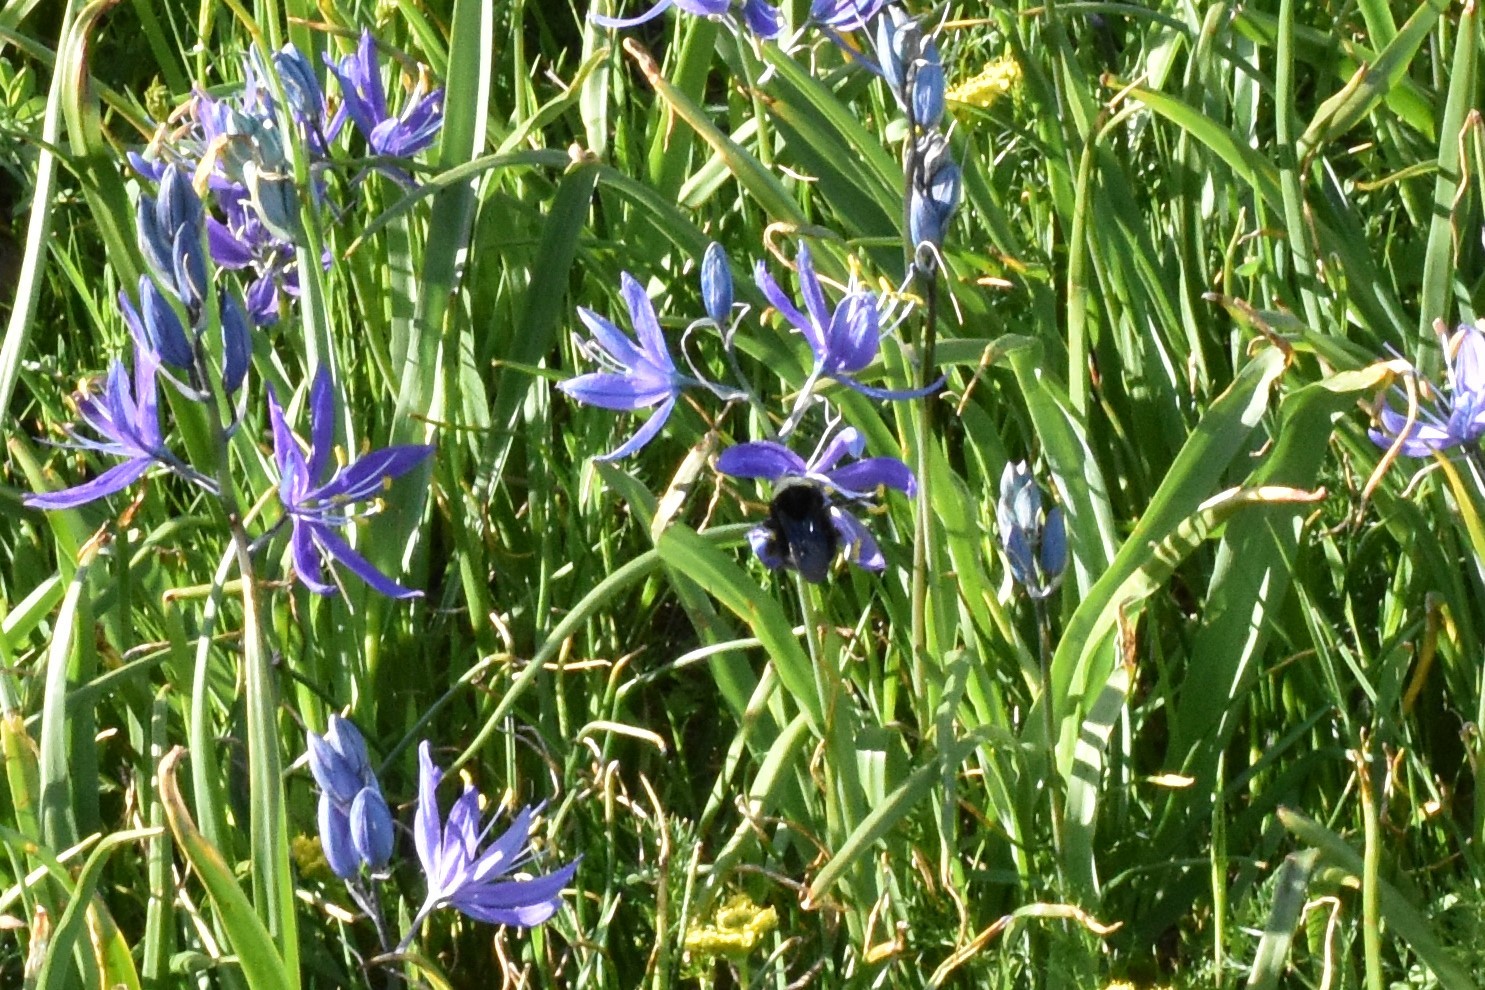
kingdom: Animalia
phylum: Arthropoda
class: Insecta
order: Hymenoptera
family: Apidae
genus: Bombus
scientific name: Bombus vosnesenskii
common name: Vosnesensky bumble bee
